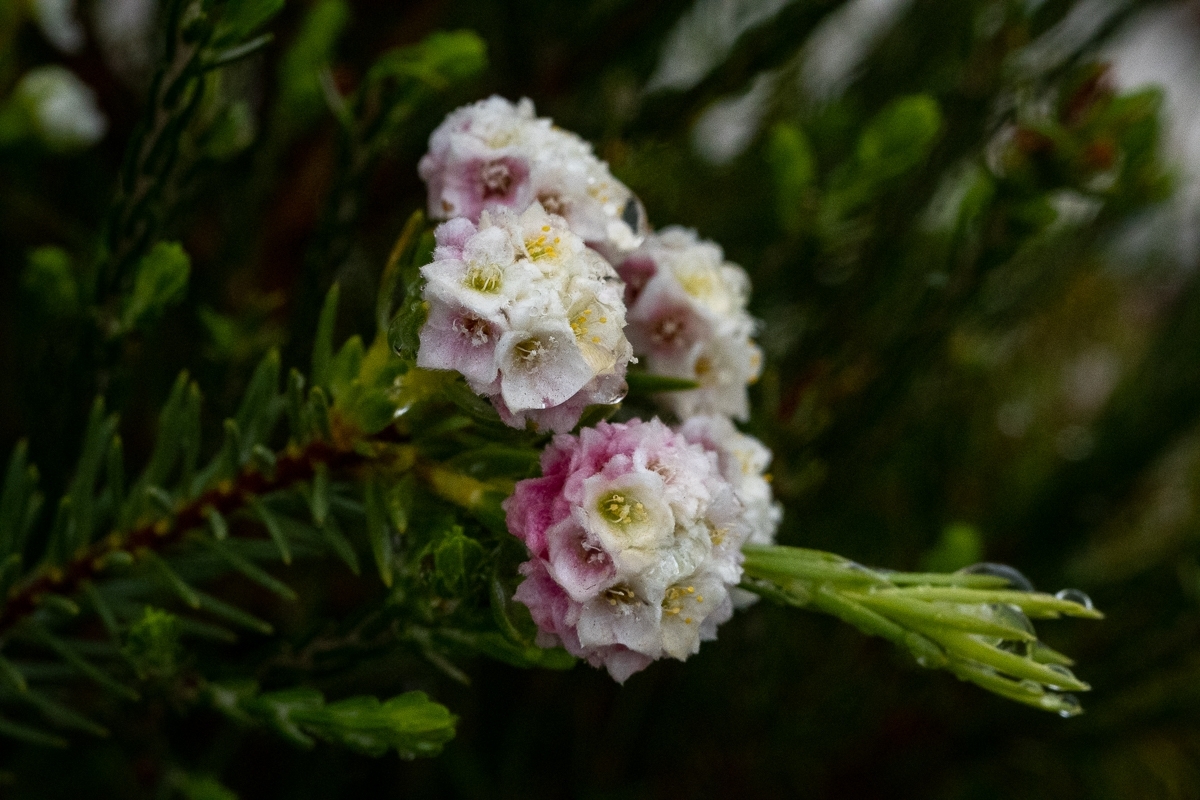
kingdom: Plantae
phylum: Tracheophyta
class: Magnoliopsida
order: Malvales
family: Thymelaeaceae
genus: Lachnaea
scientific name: Lachnaea densiflora
